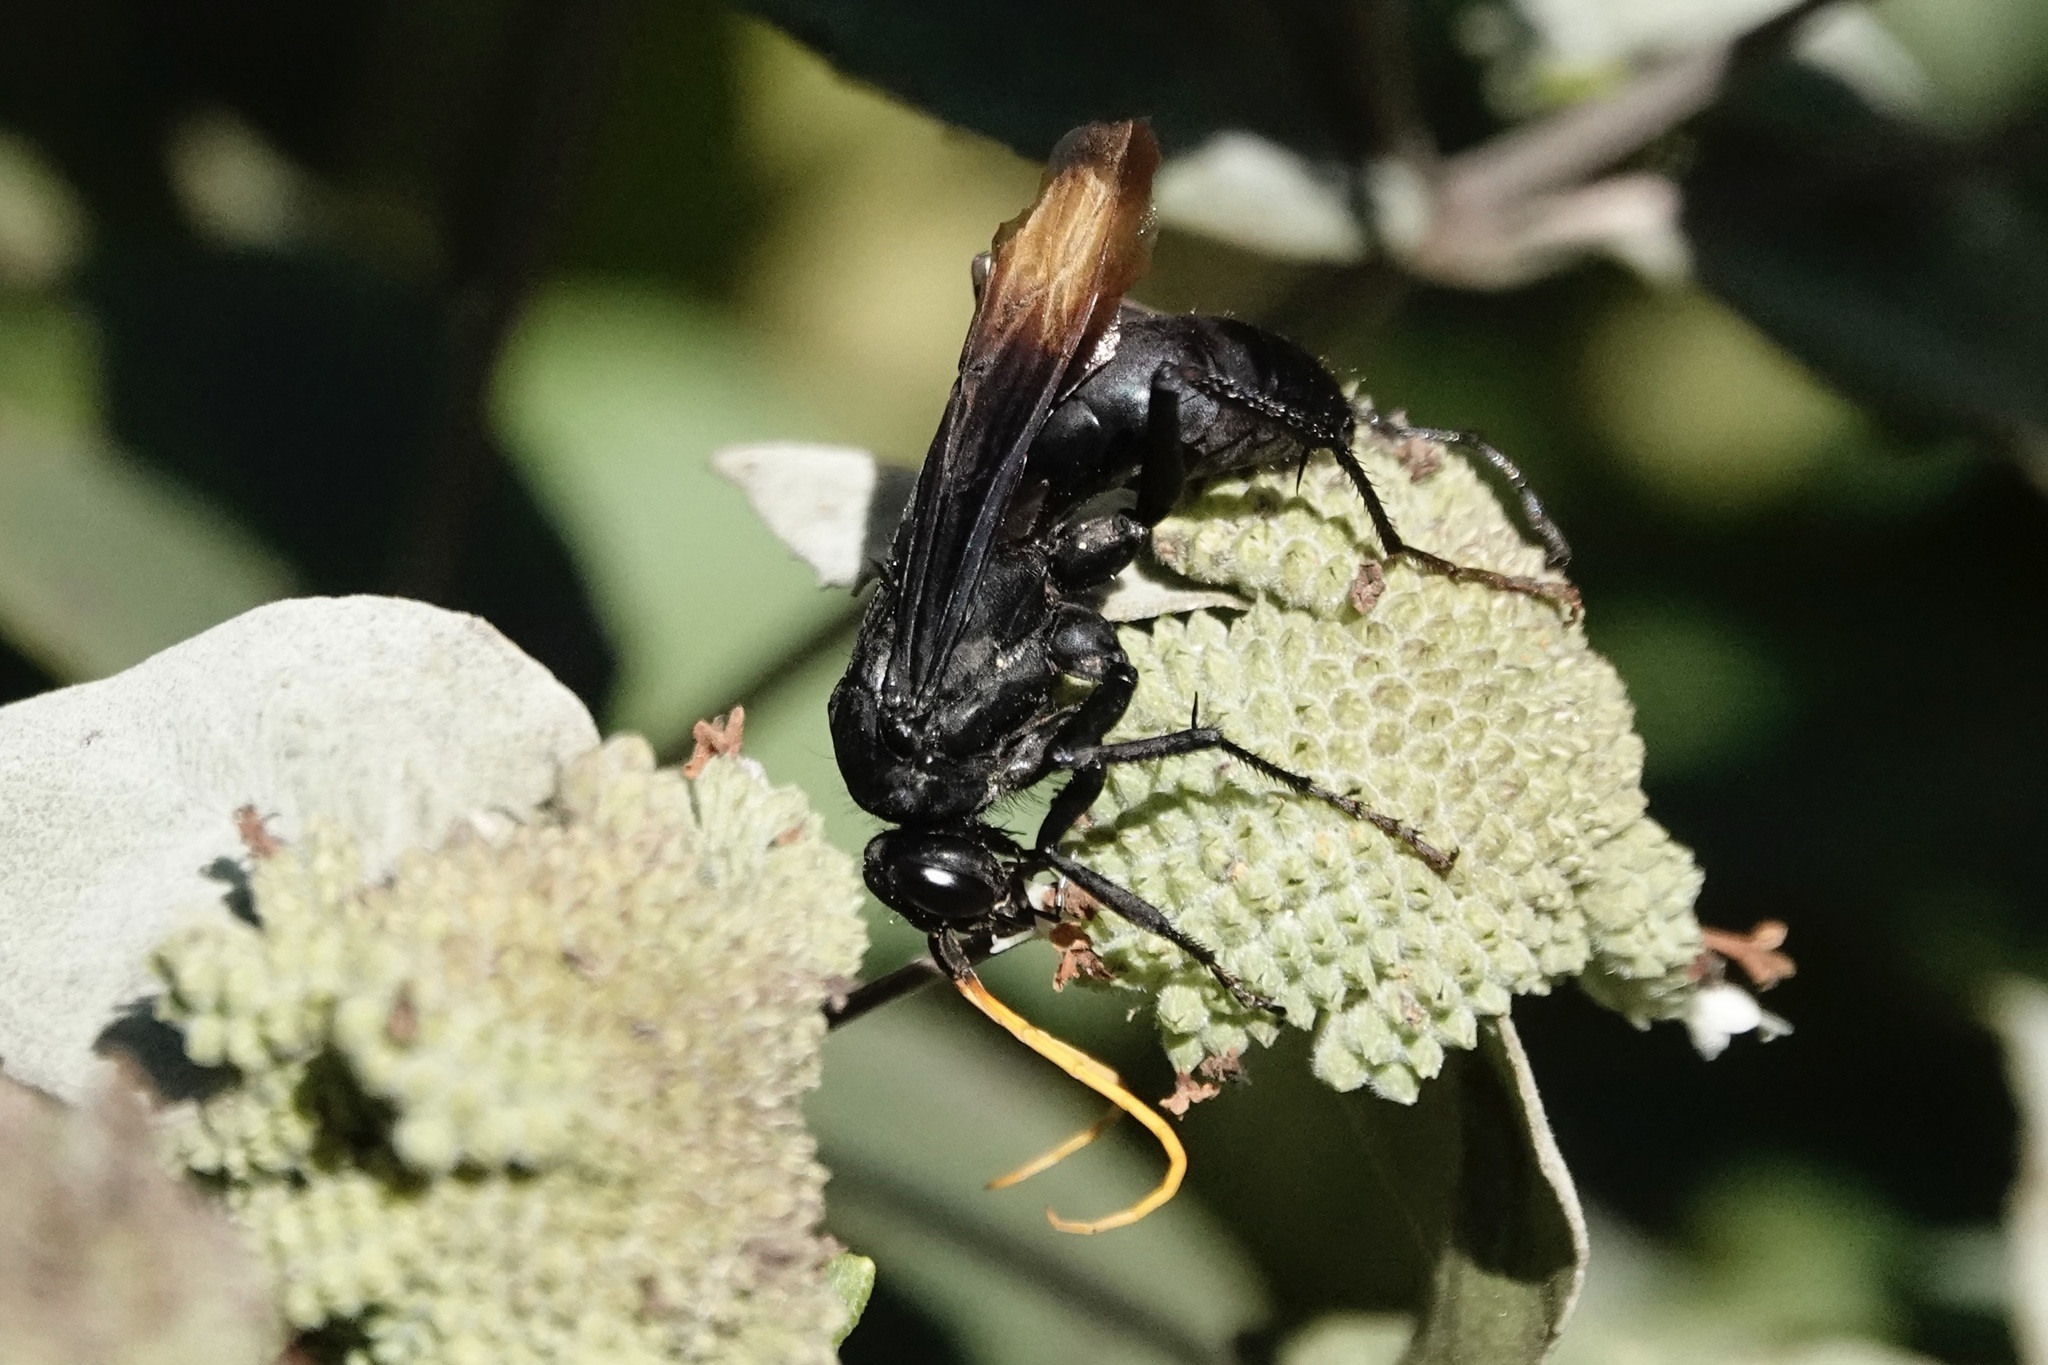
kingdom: Animalia
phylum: Arthropoda
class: Insecta
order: Hymenoptera
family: Pompilidae
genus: Entypus
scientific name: Entypus unifasciatus
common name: Eastern tawny-horned spider wasp
